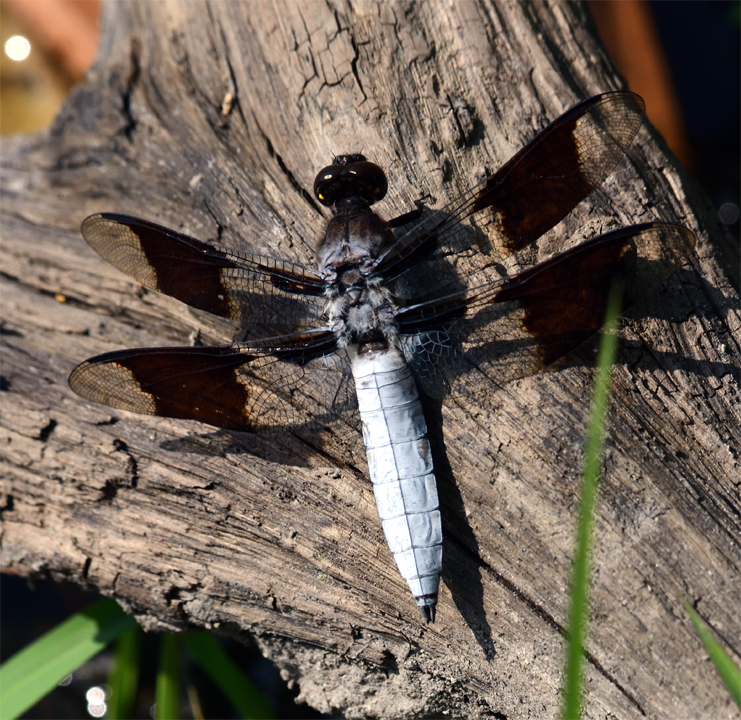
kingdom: Animalia
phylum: Arthropoda
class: Insecta
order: Odonata
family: Libellulidae
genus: Plathemis
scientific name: Plathemis lydia
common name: Common whitetail
